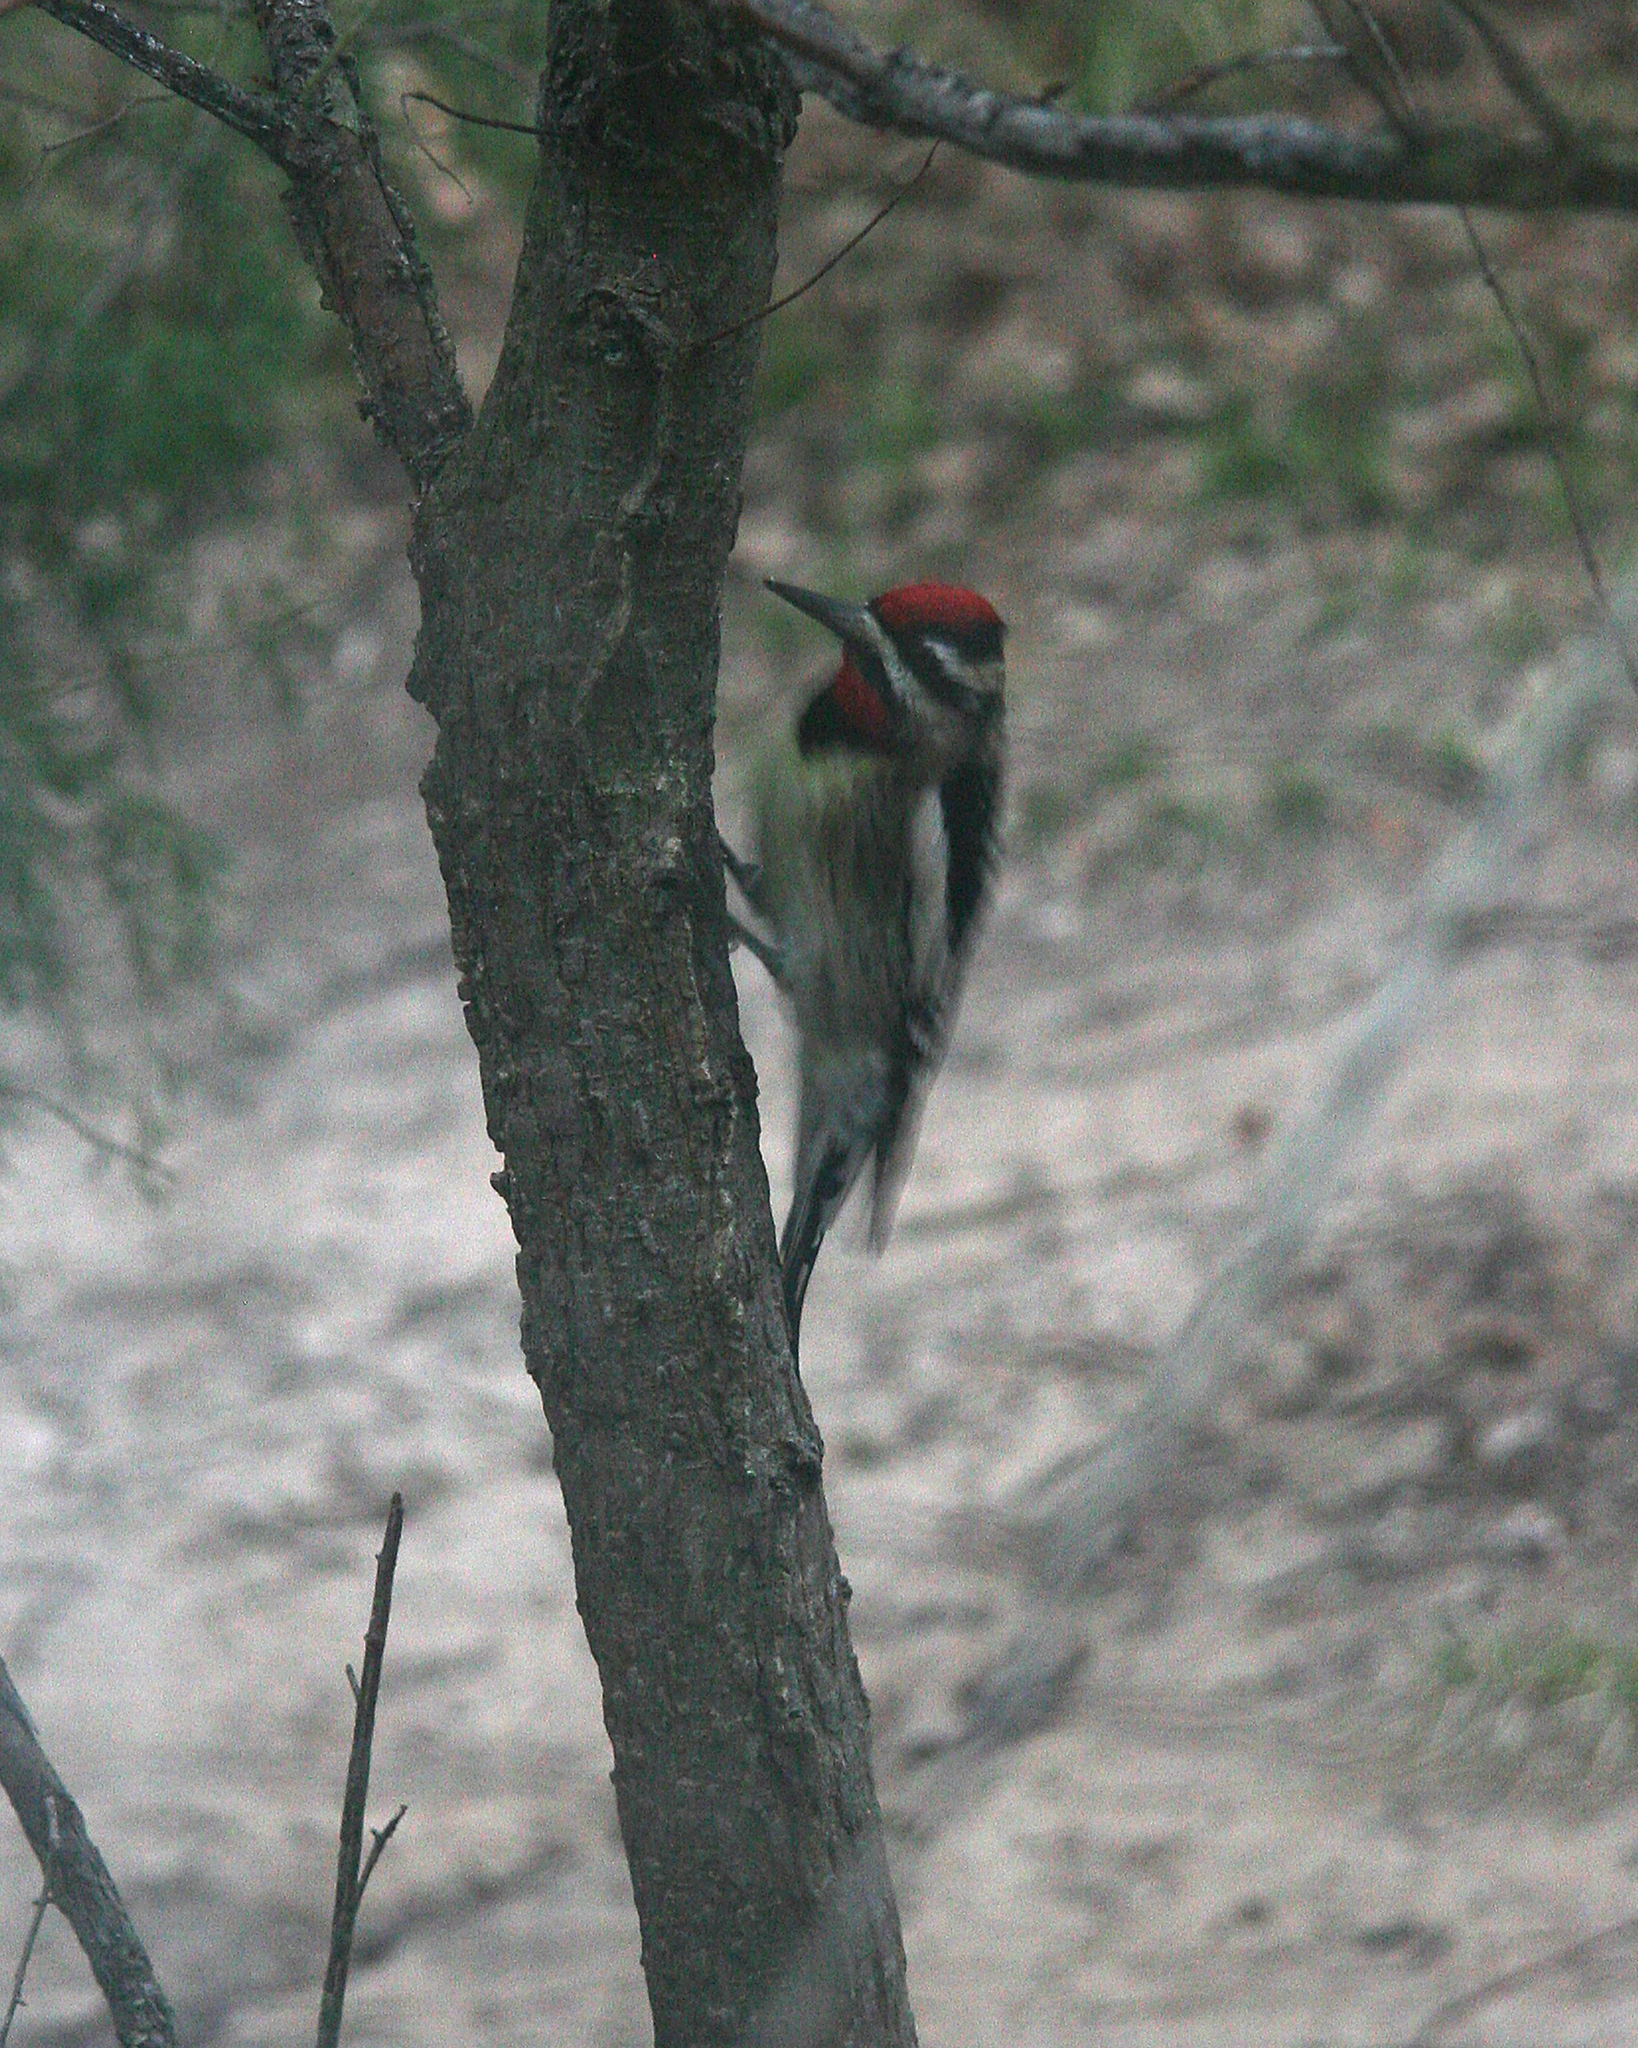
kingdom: Animalia
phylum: Chordata
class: Aves
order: Piciformes
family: Picidae
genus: Sphyrapicus
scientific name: Sphyrapicus varius
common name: Yellow-bellied sapsucker
